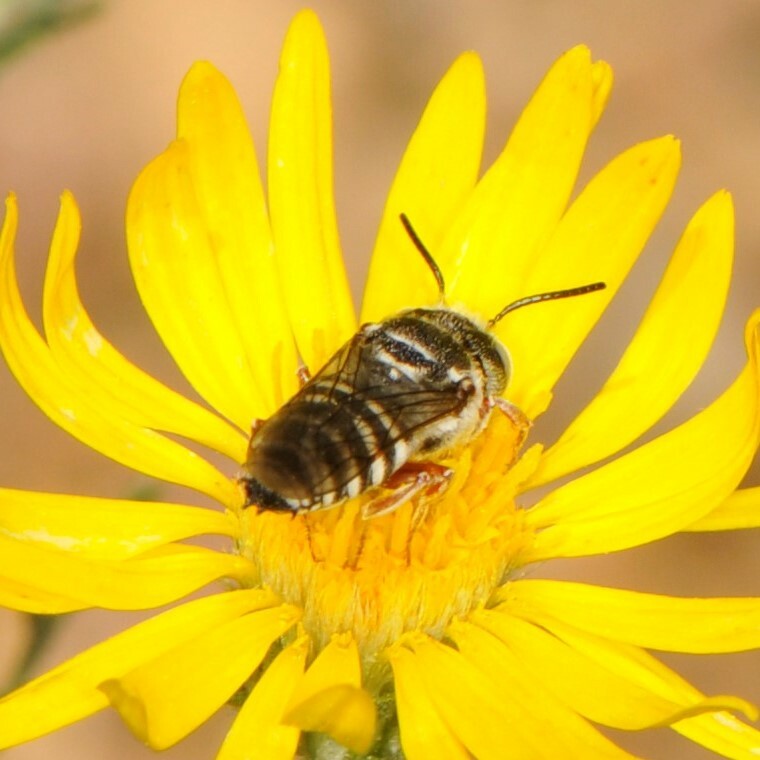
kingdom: Animalia
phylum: Arthropoda
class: Insecta
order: Hymenoptera
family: Megachilidae
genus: Coelioxys
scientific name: Coelioxys
